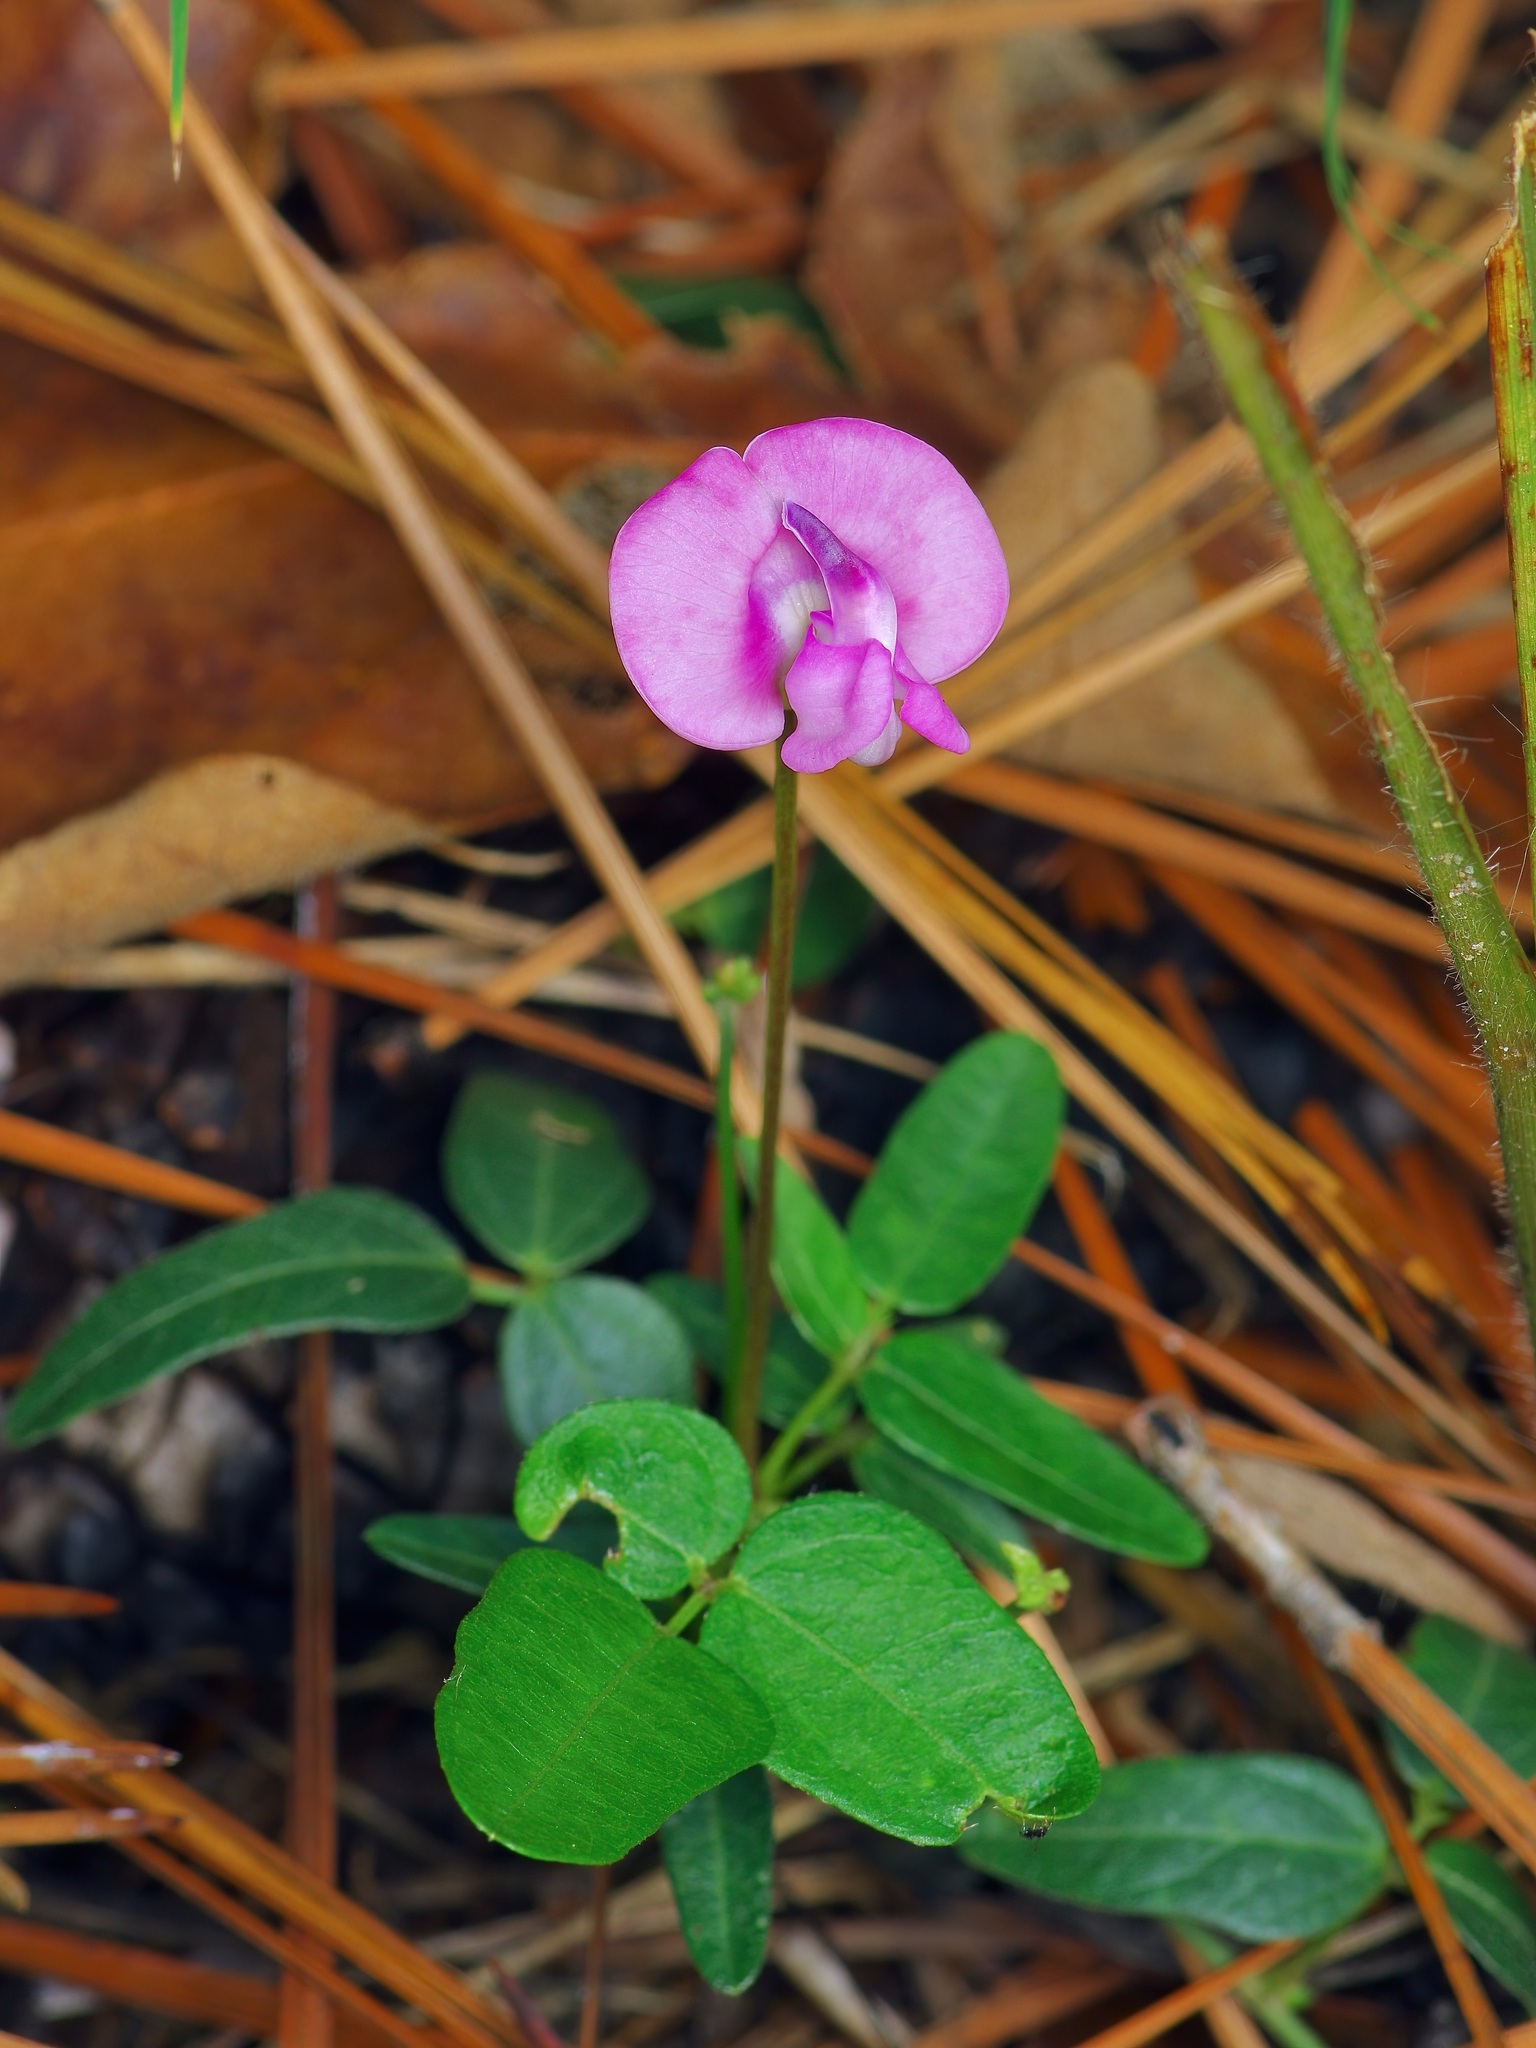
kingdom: Plantae
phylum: Tracheophyta
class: Magnoliopsida
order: Fabales
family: Fabaceae
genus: Strophostyles
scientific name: Strophostyles umbellata
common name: Perennial wild bean
